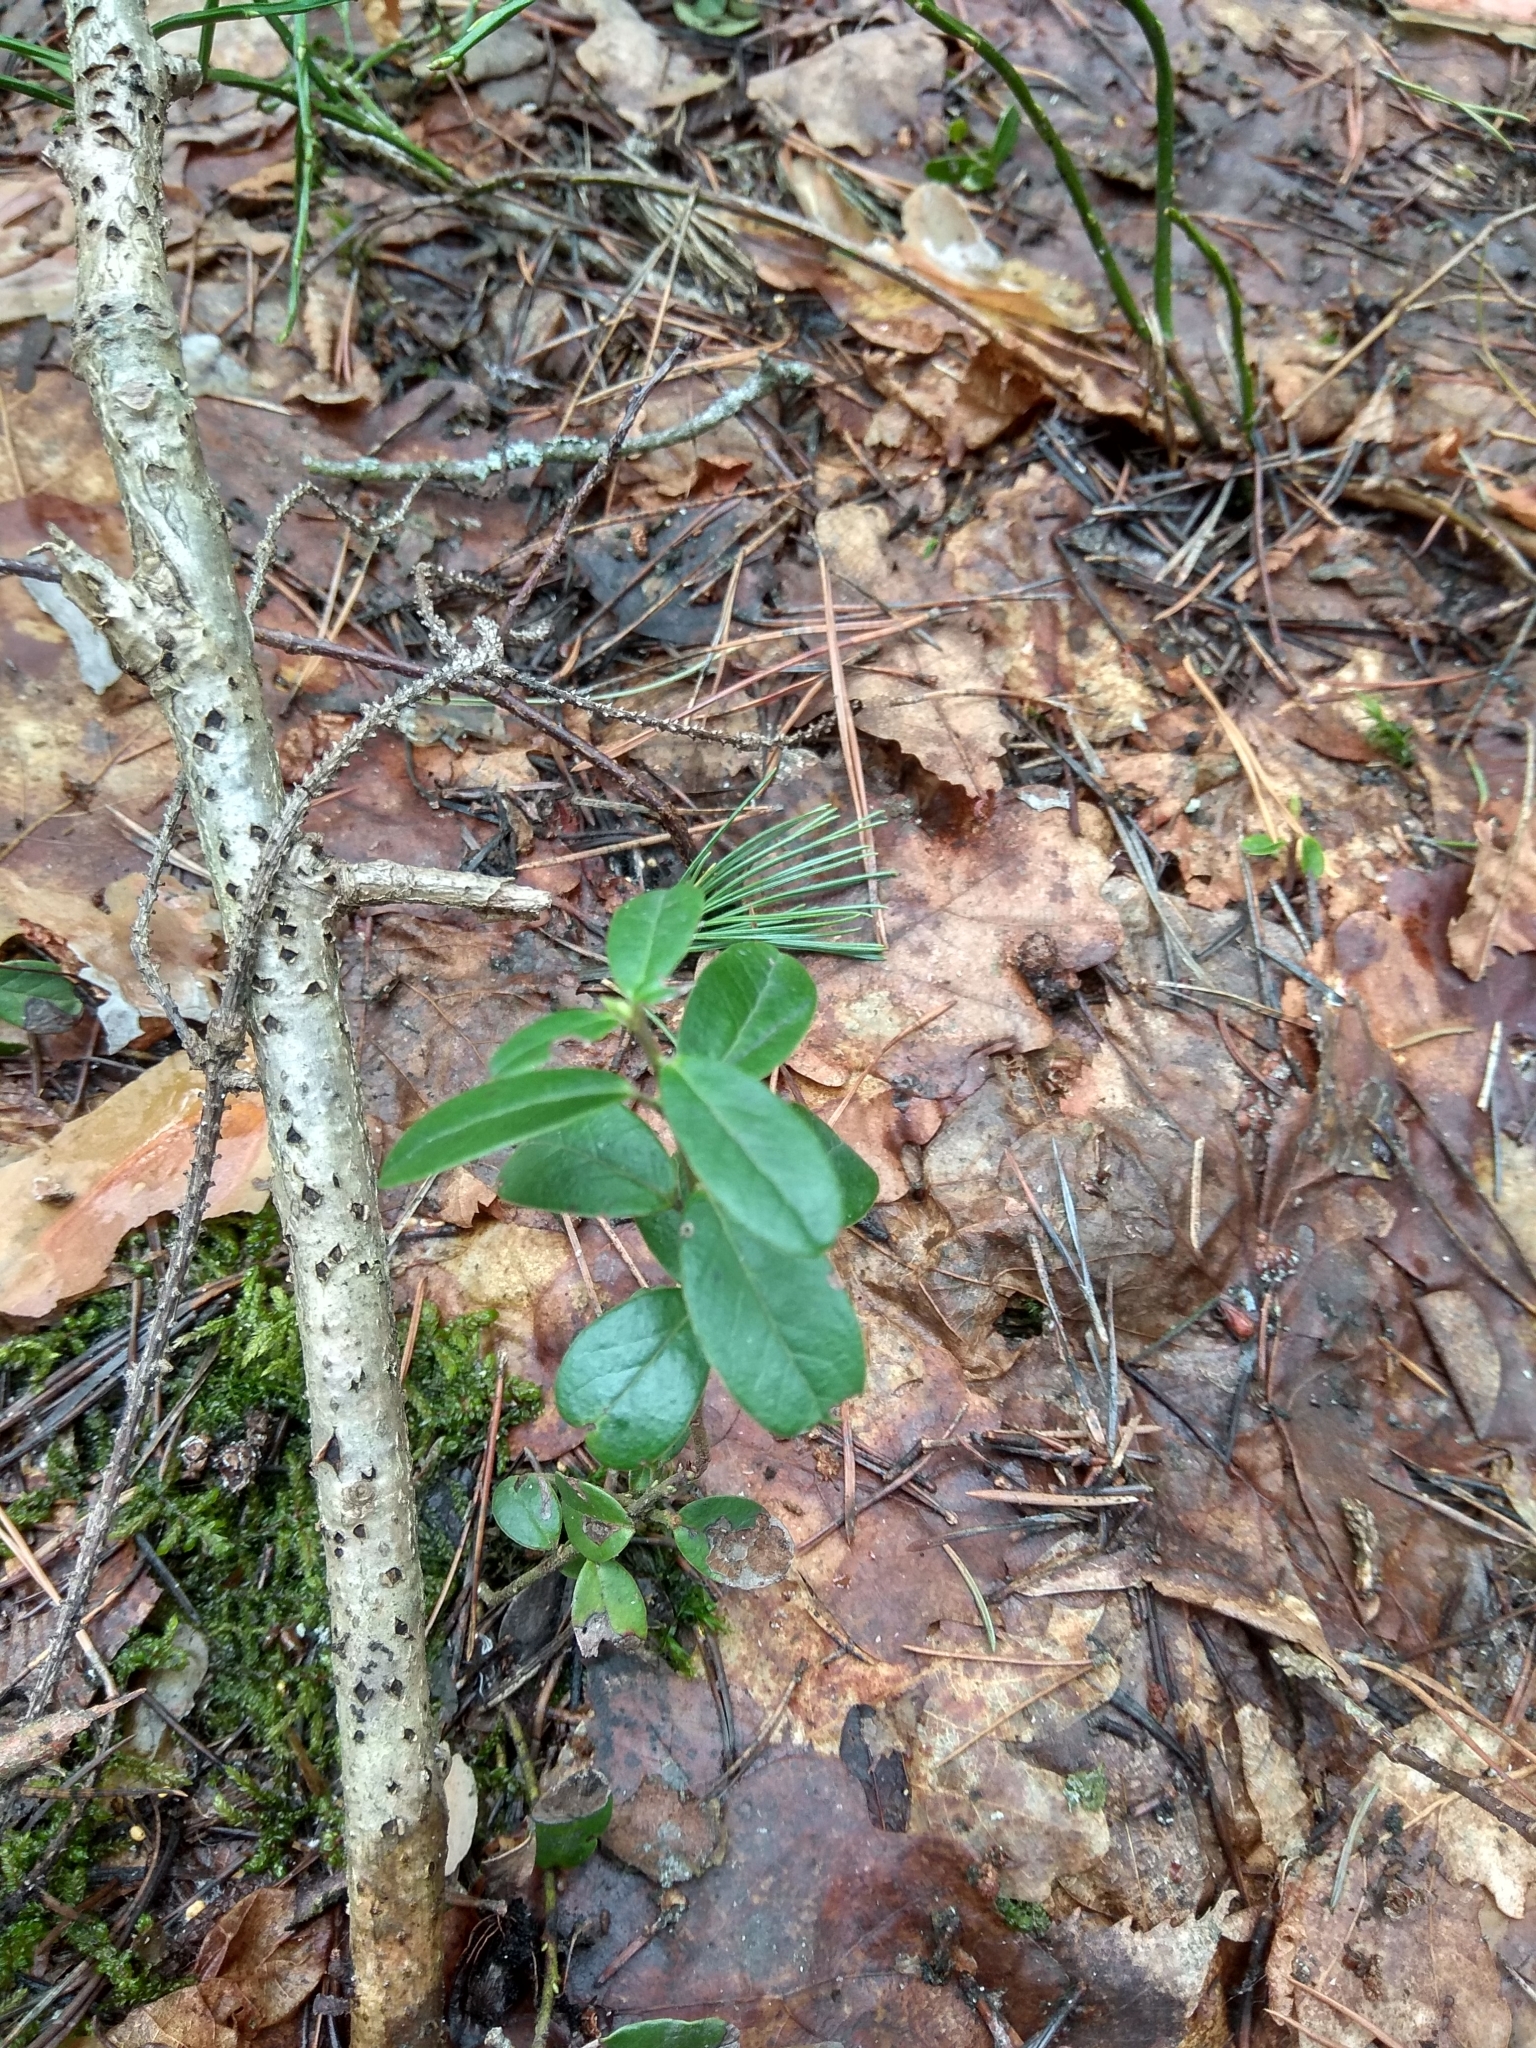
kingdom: Plantae
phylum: Tracheophyta
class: Magnoliopsida
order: Ericales
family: Ericaceae
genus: Vaccinium
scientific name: Vaccinium vitis-idaea
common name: Cowberry
